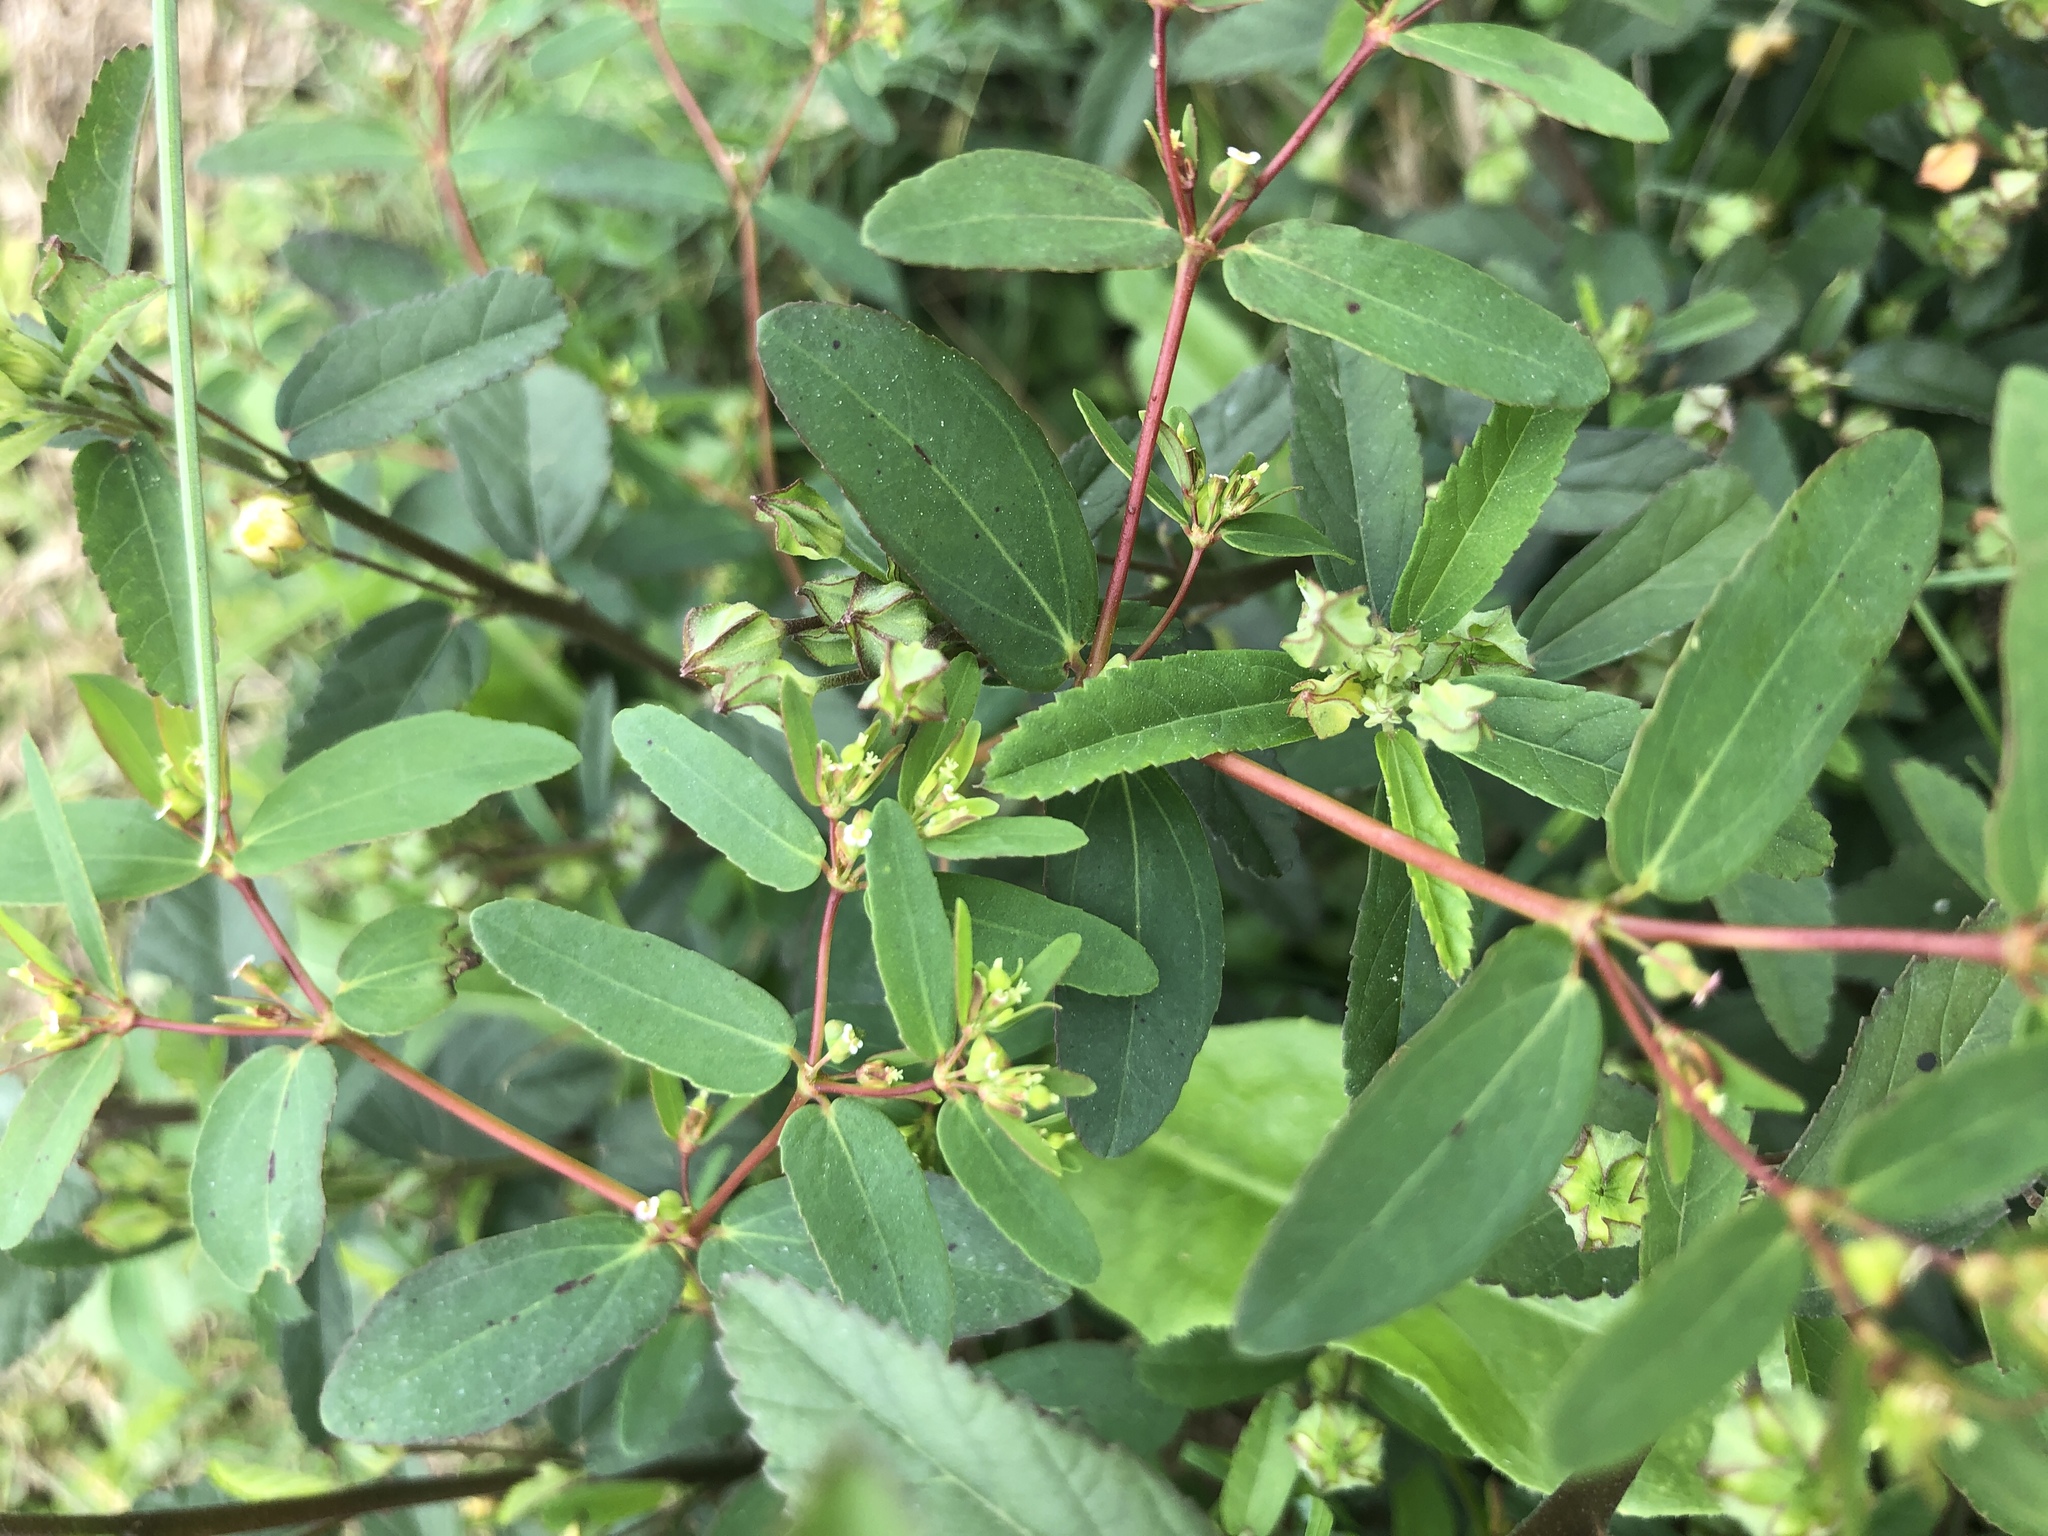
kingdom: Plantae
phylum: Tracheophyta
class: Magnoliopsida
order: Malpighiales
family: Euphorbiaceae
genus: Euphorbia
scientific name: Euphorbia nutans
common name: Eyebane
